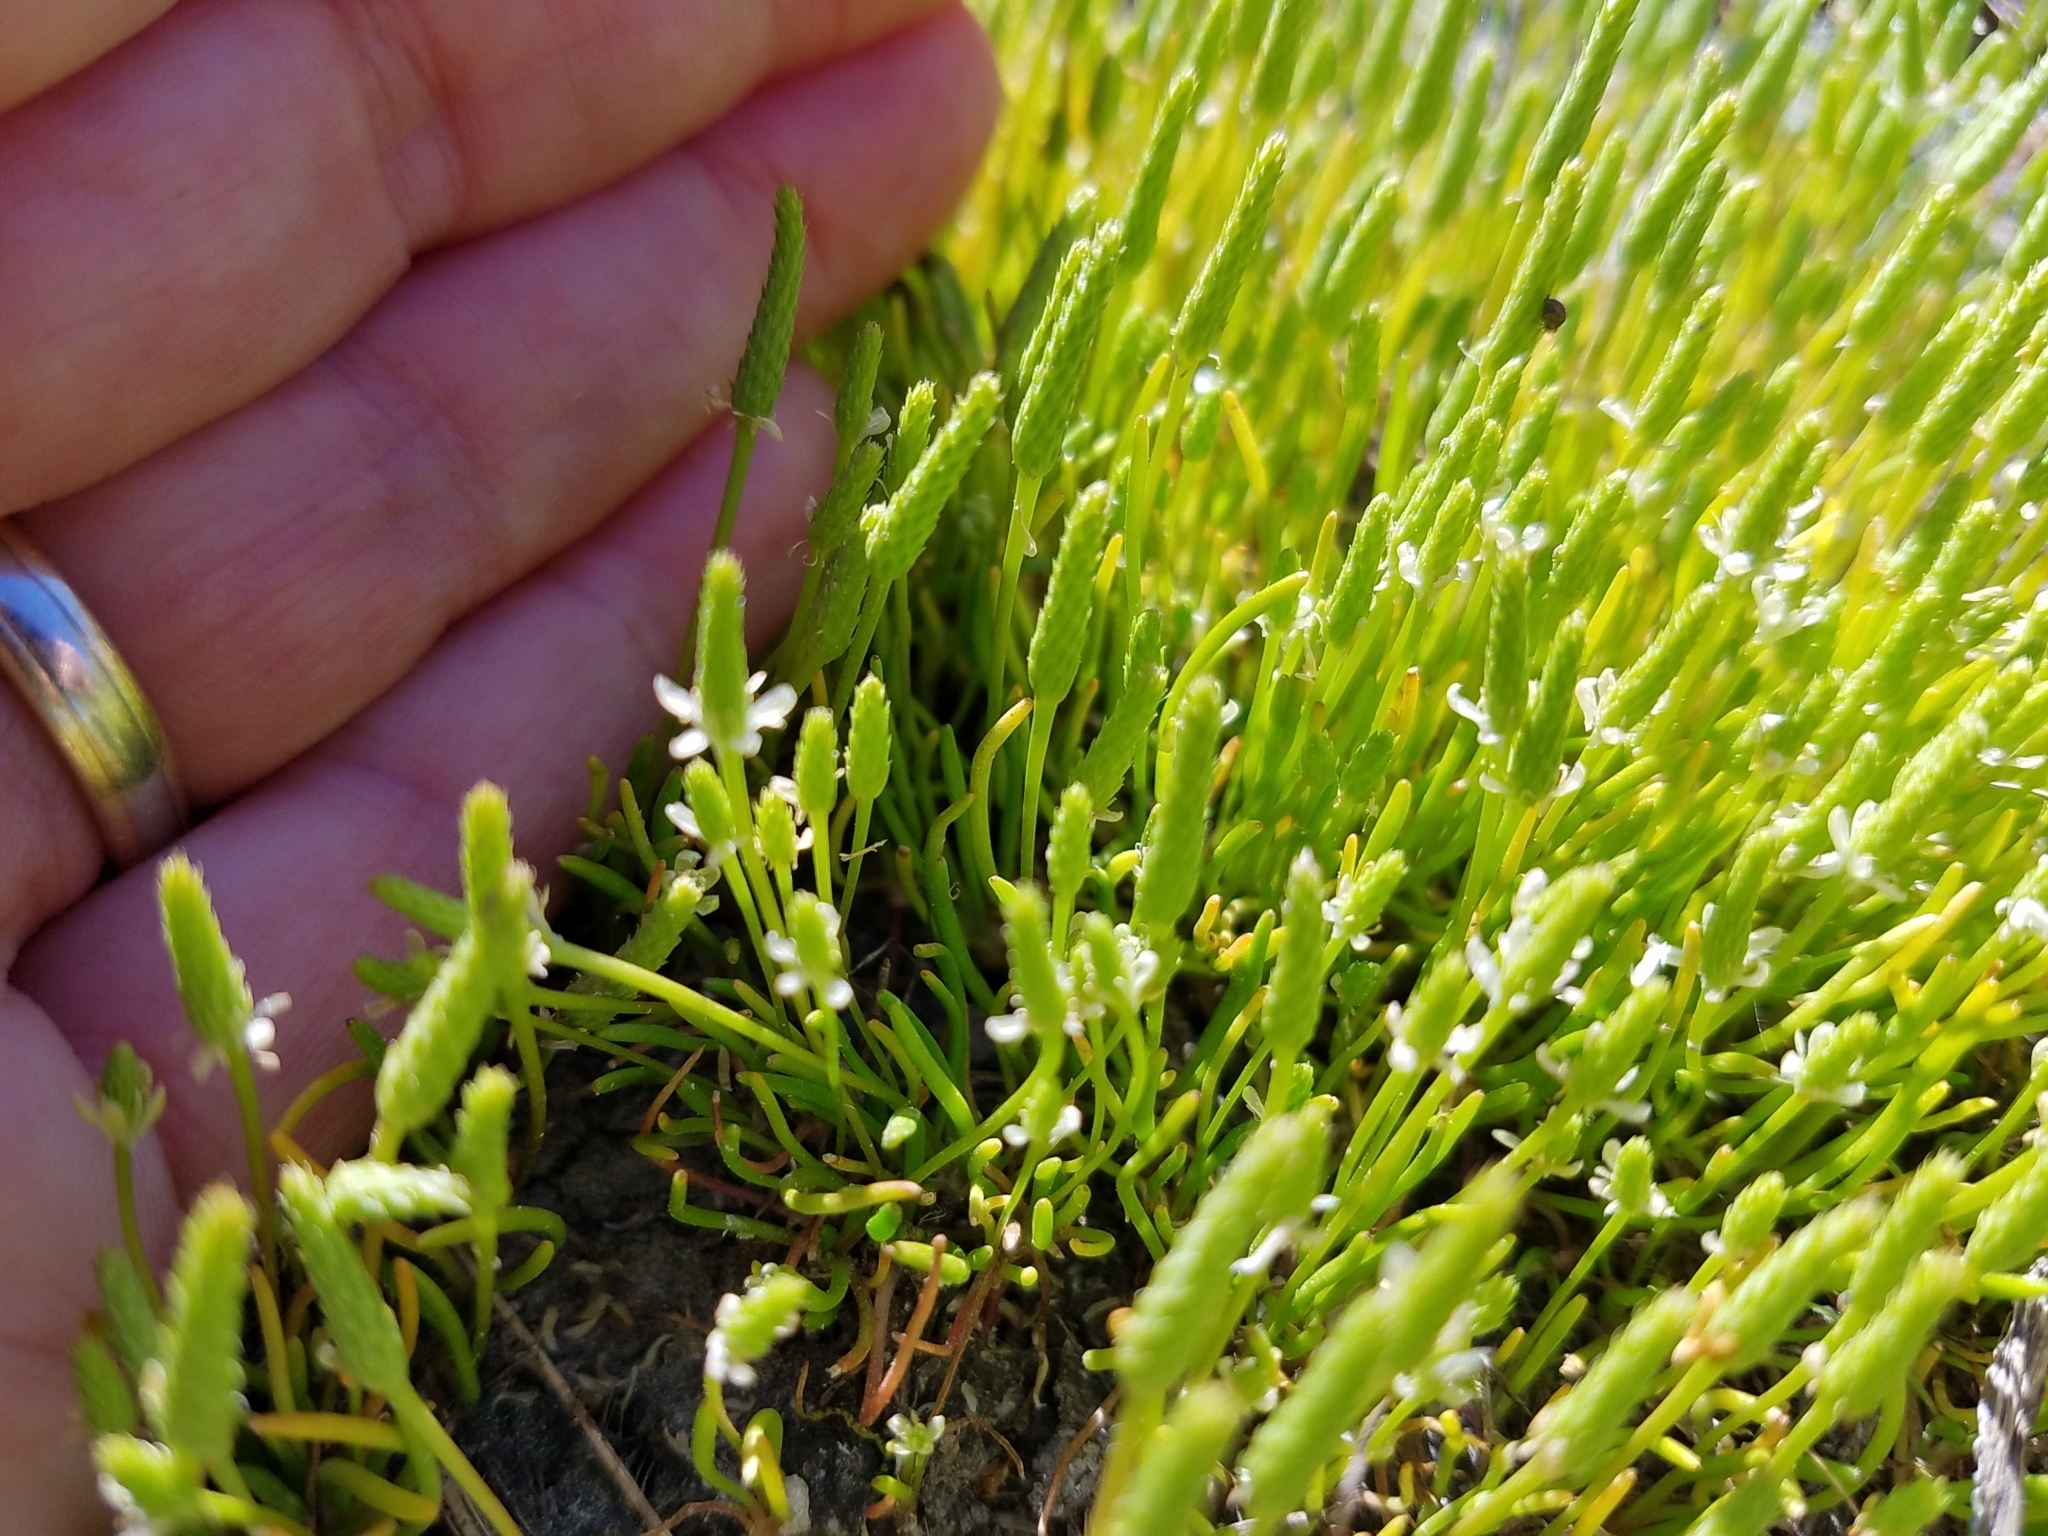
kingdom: Plantae
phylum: Tracheophyta
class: Magnoliopsida
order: Ranunculales
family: Ranunculaceae
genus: Myosurus
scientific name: Myosurus minimus
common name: Mousetail
